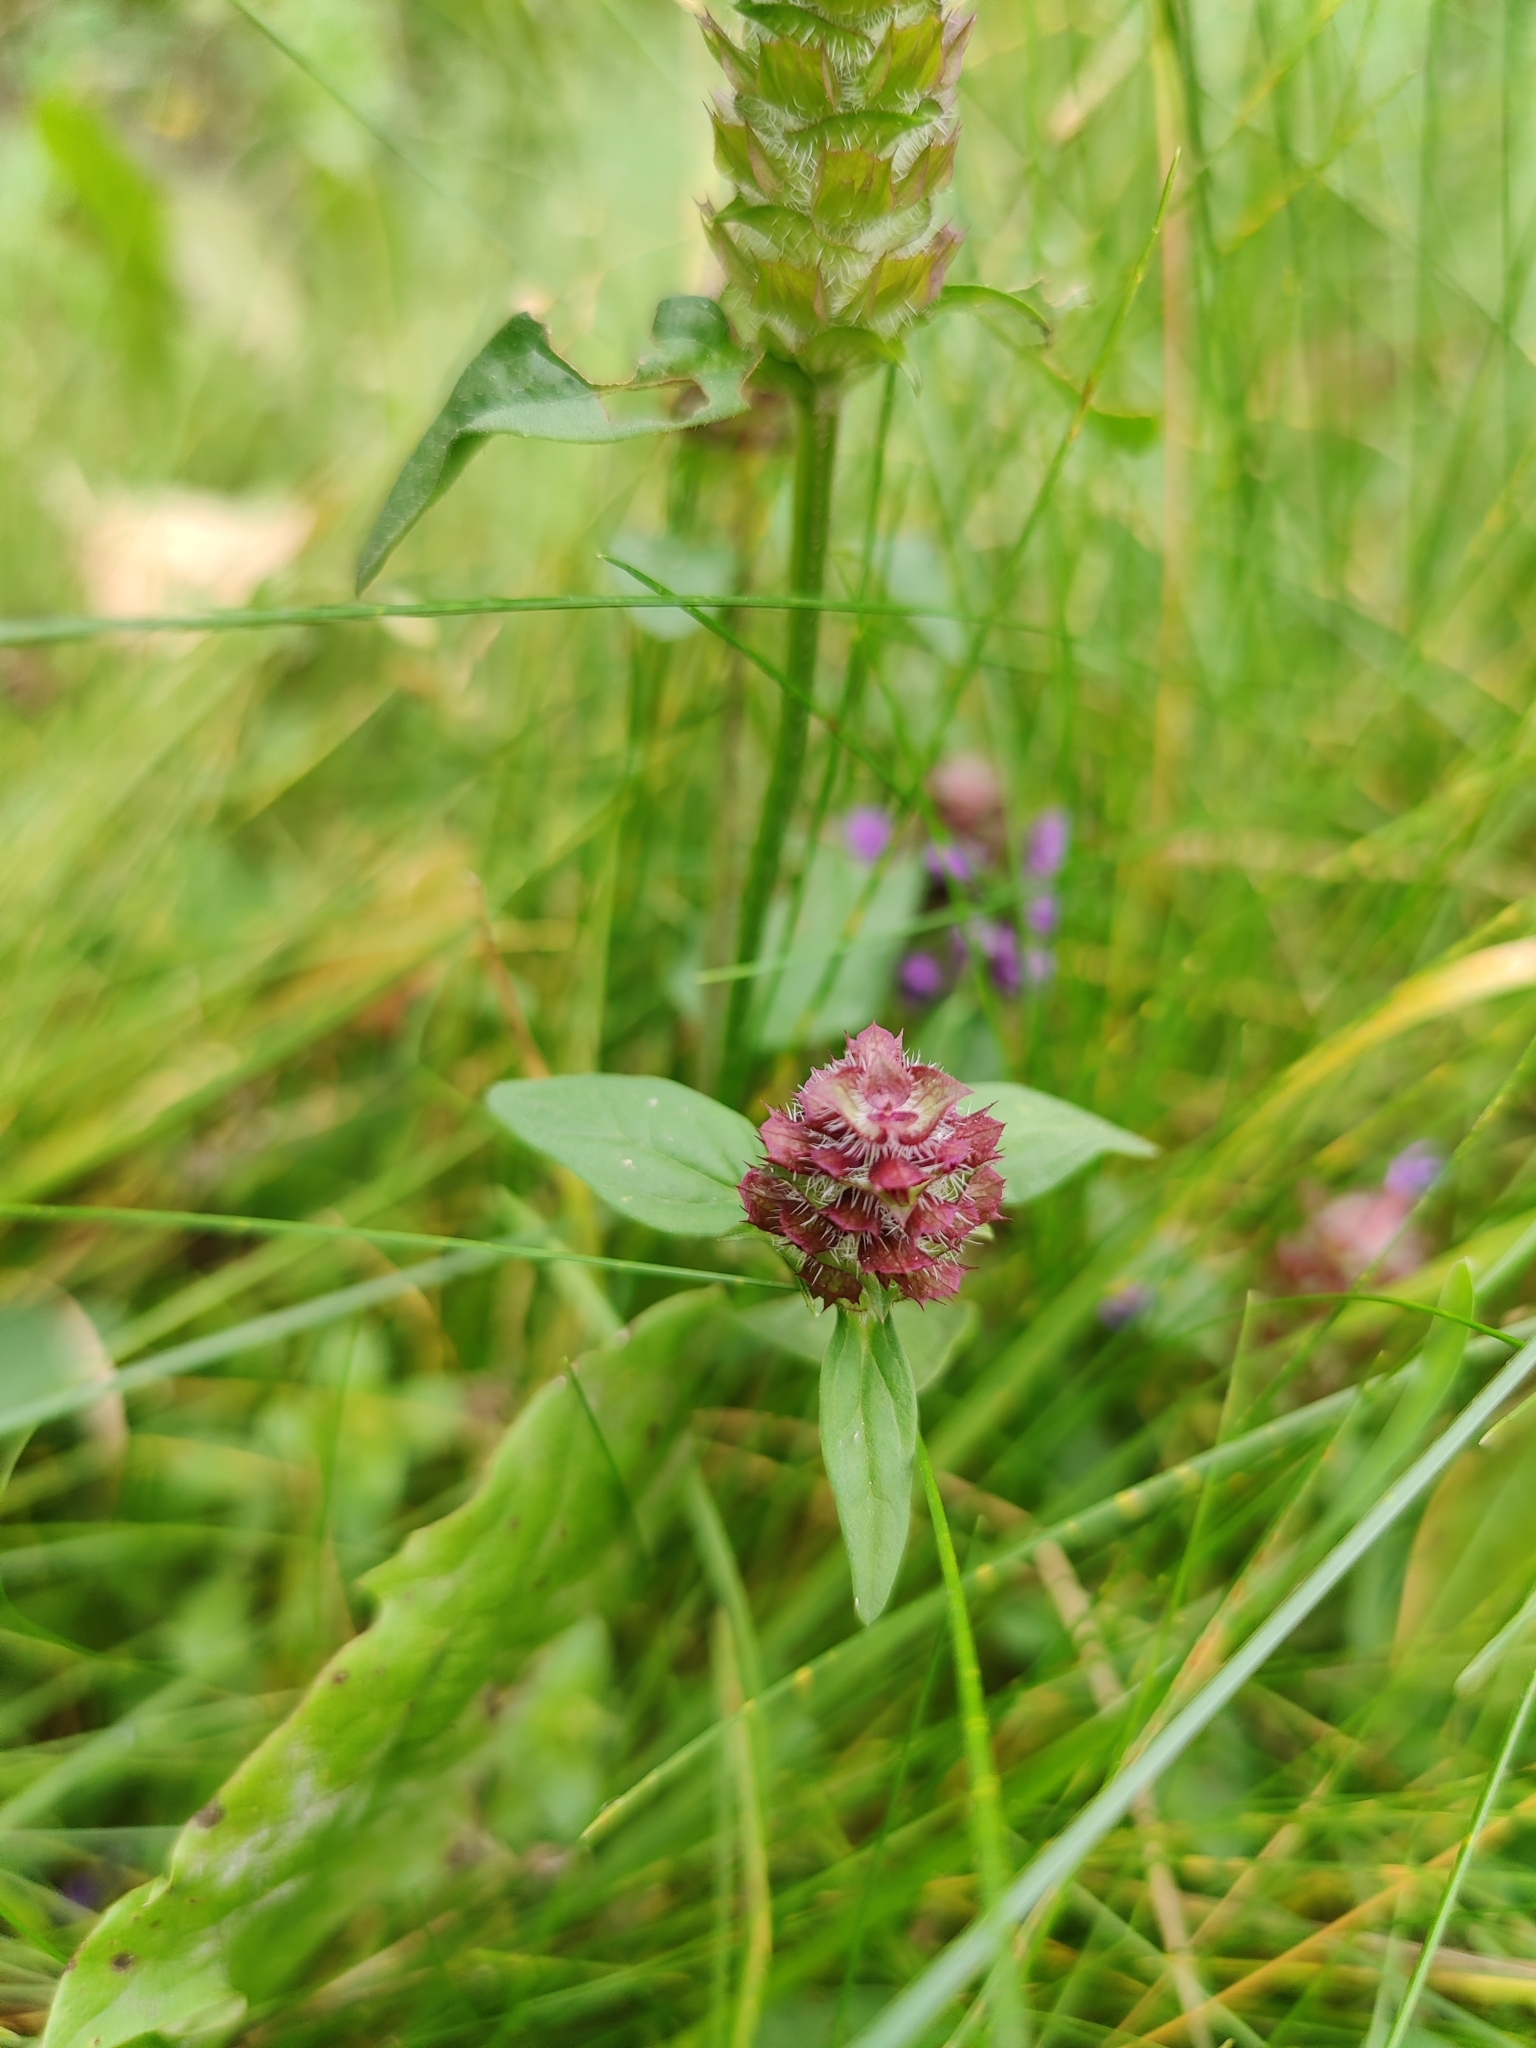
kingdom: Plantae
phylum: Tracheophyta
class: Magnoliopsida
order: Lamiales
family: Lamiaceae
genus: Prunella
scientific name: Prunella vulgaris
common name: Heal-all
